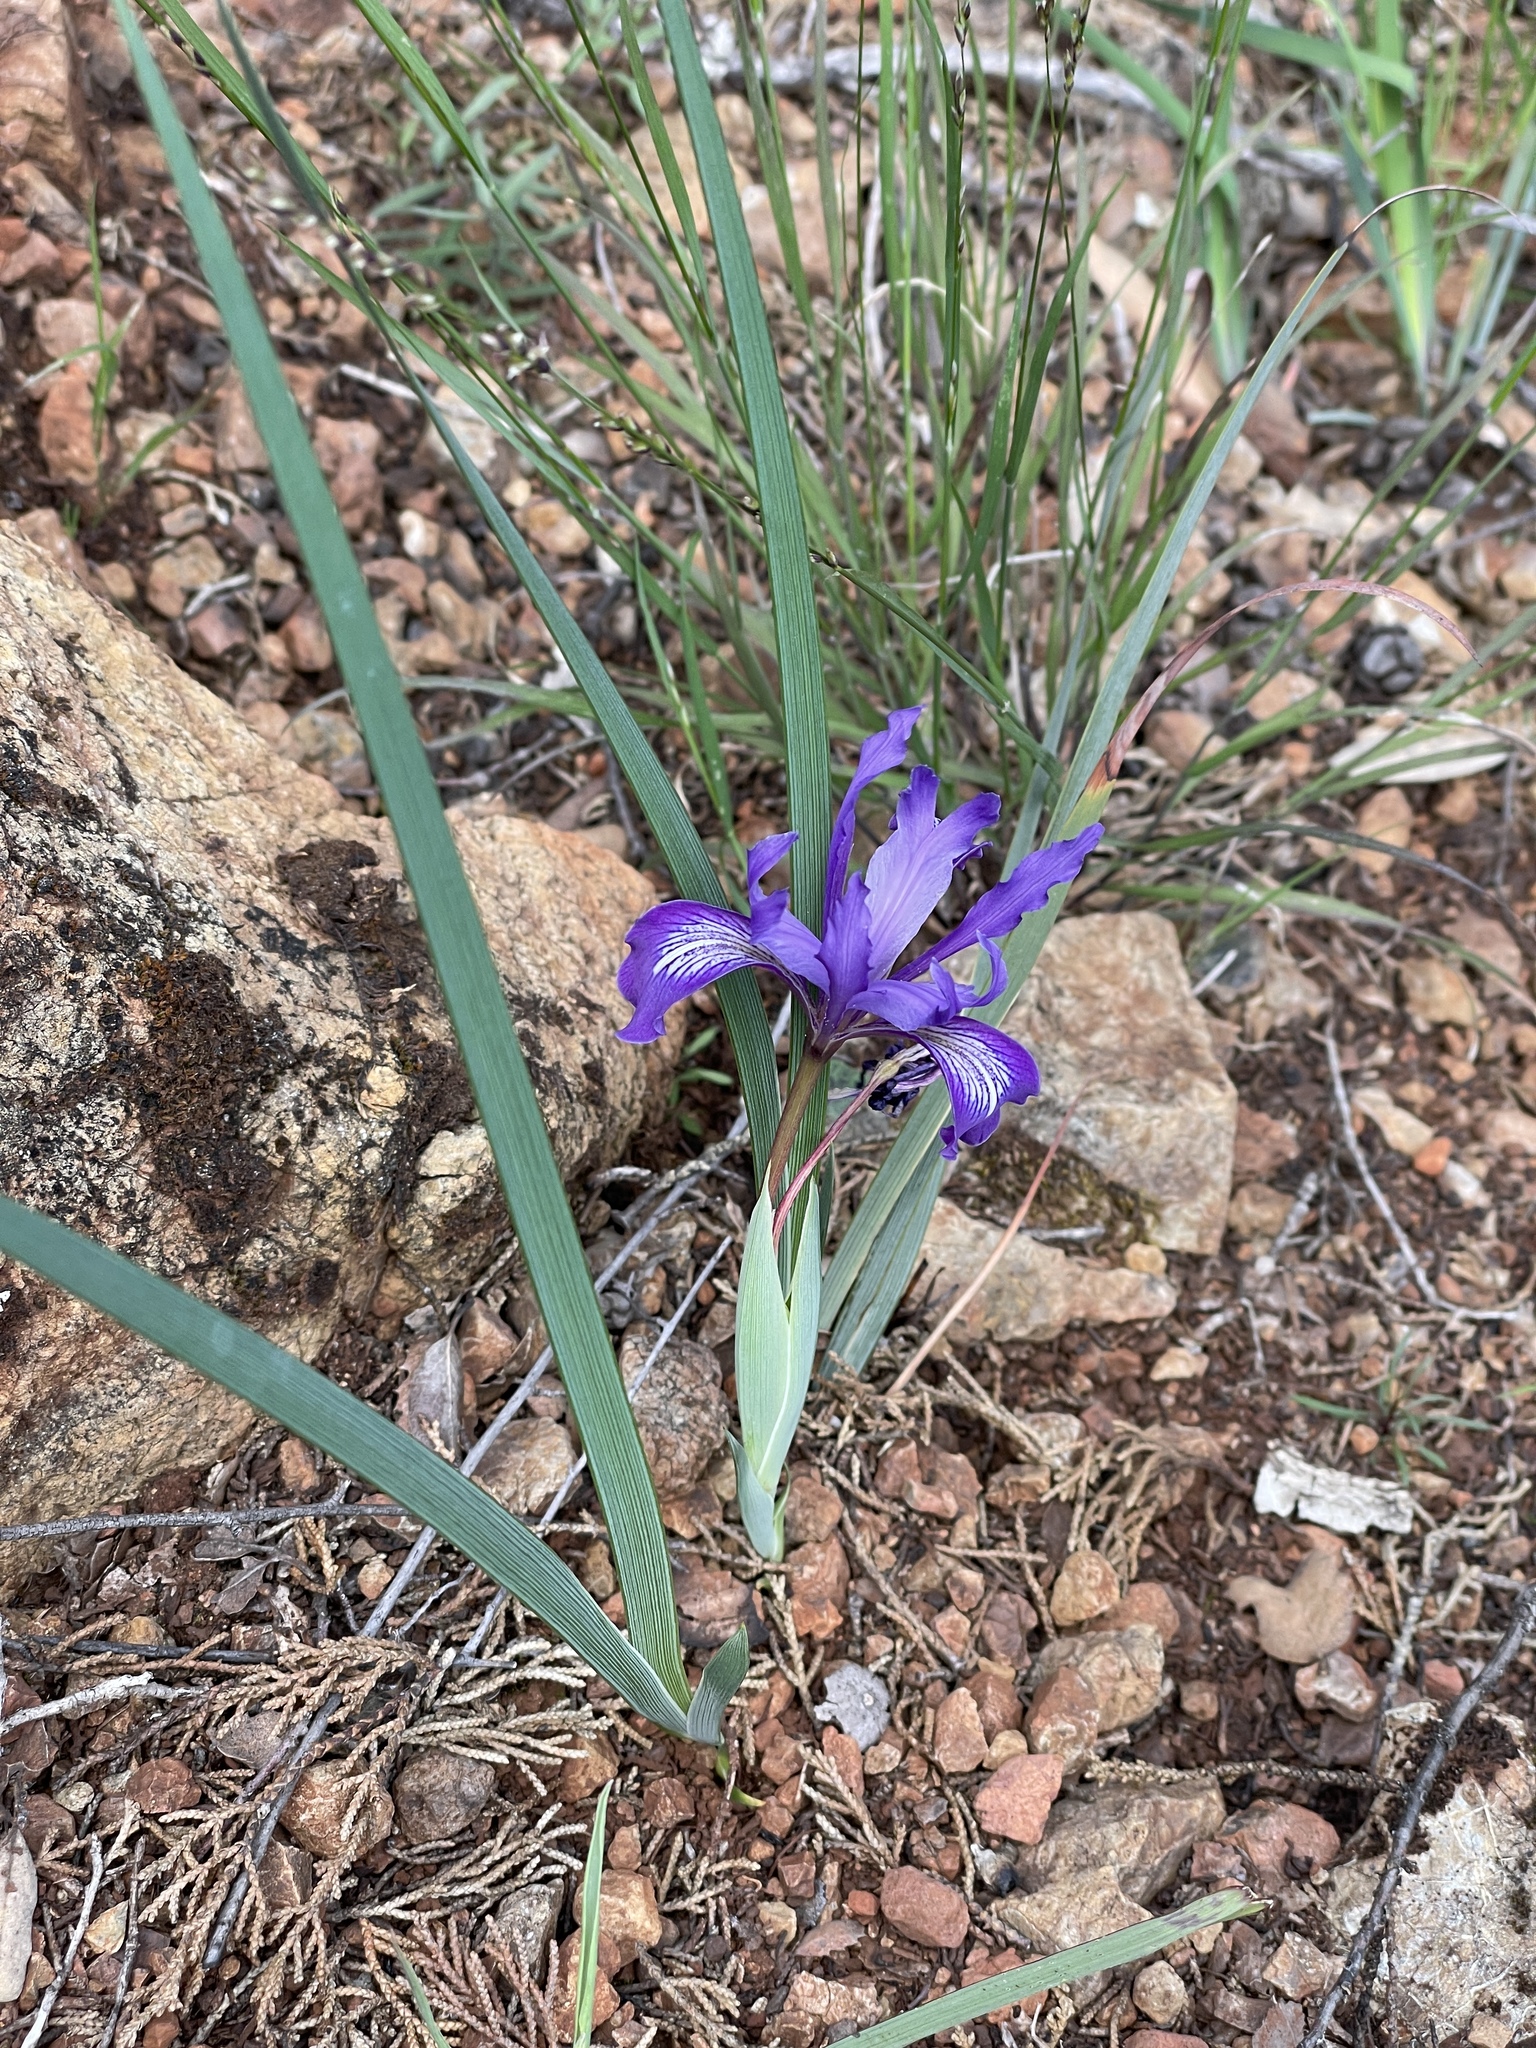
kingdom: Plantae
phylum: Tracheophyta
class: Liliopsida
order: Asparagales
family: Iridaceae
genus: Iris
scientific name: Iris macrosiphon
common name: Ground iris
